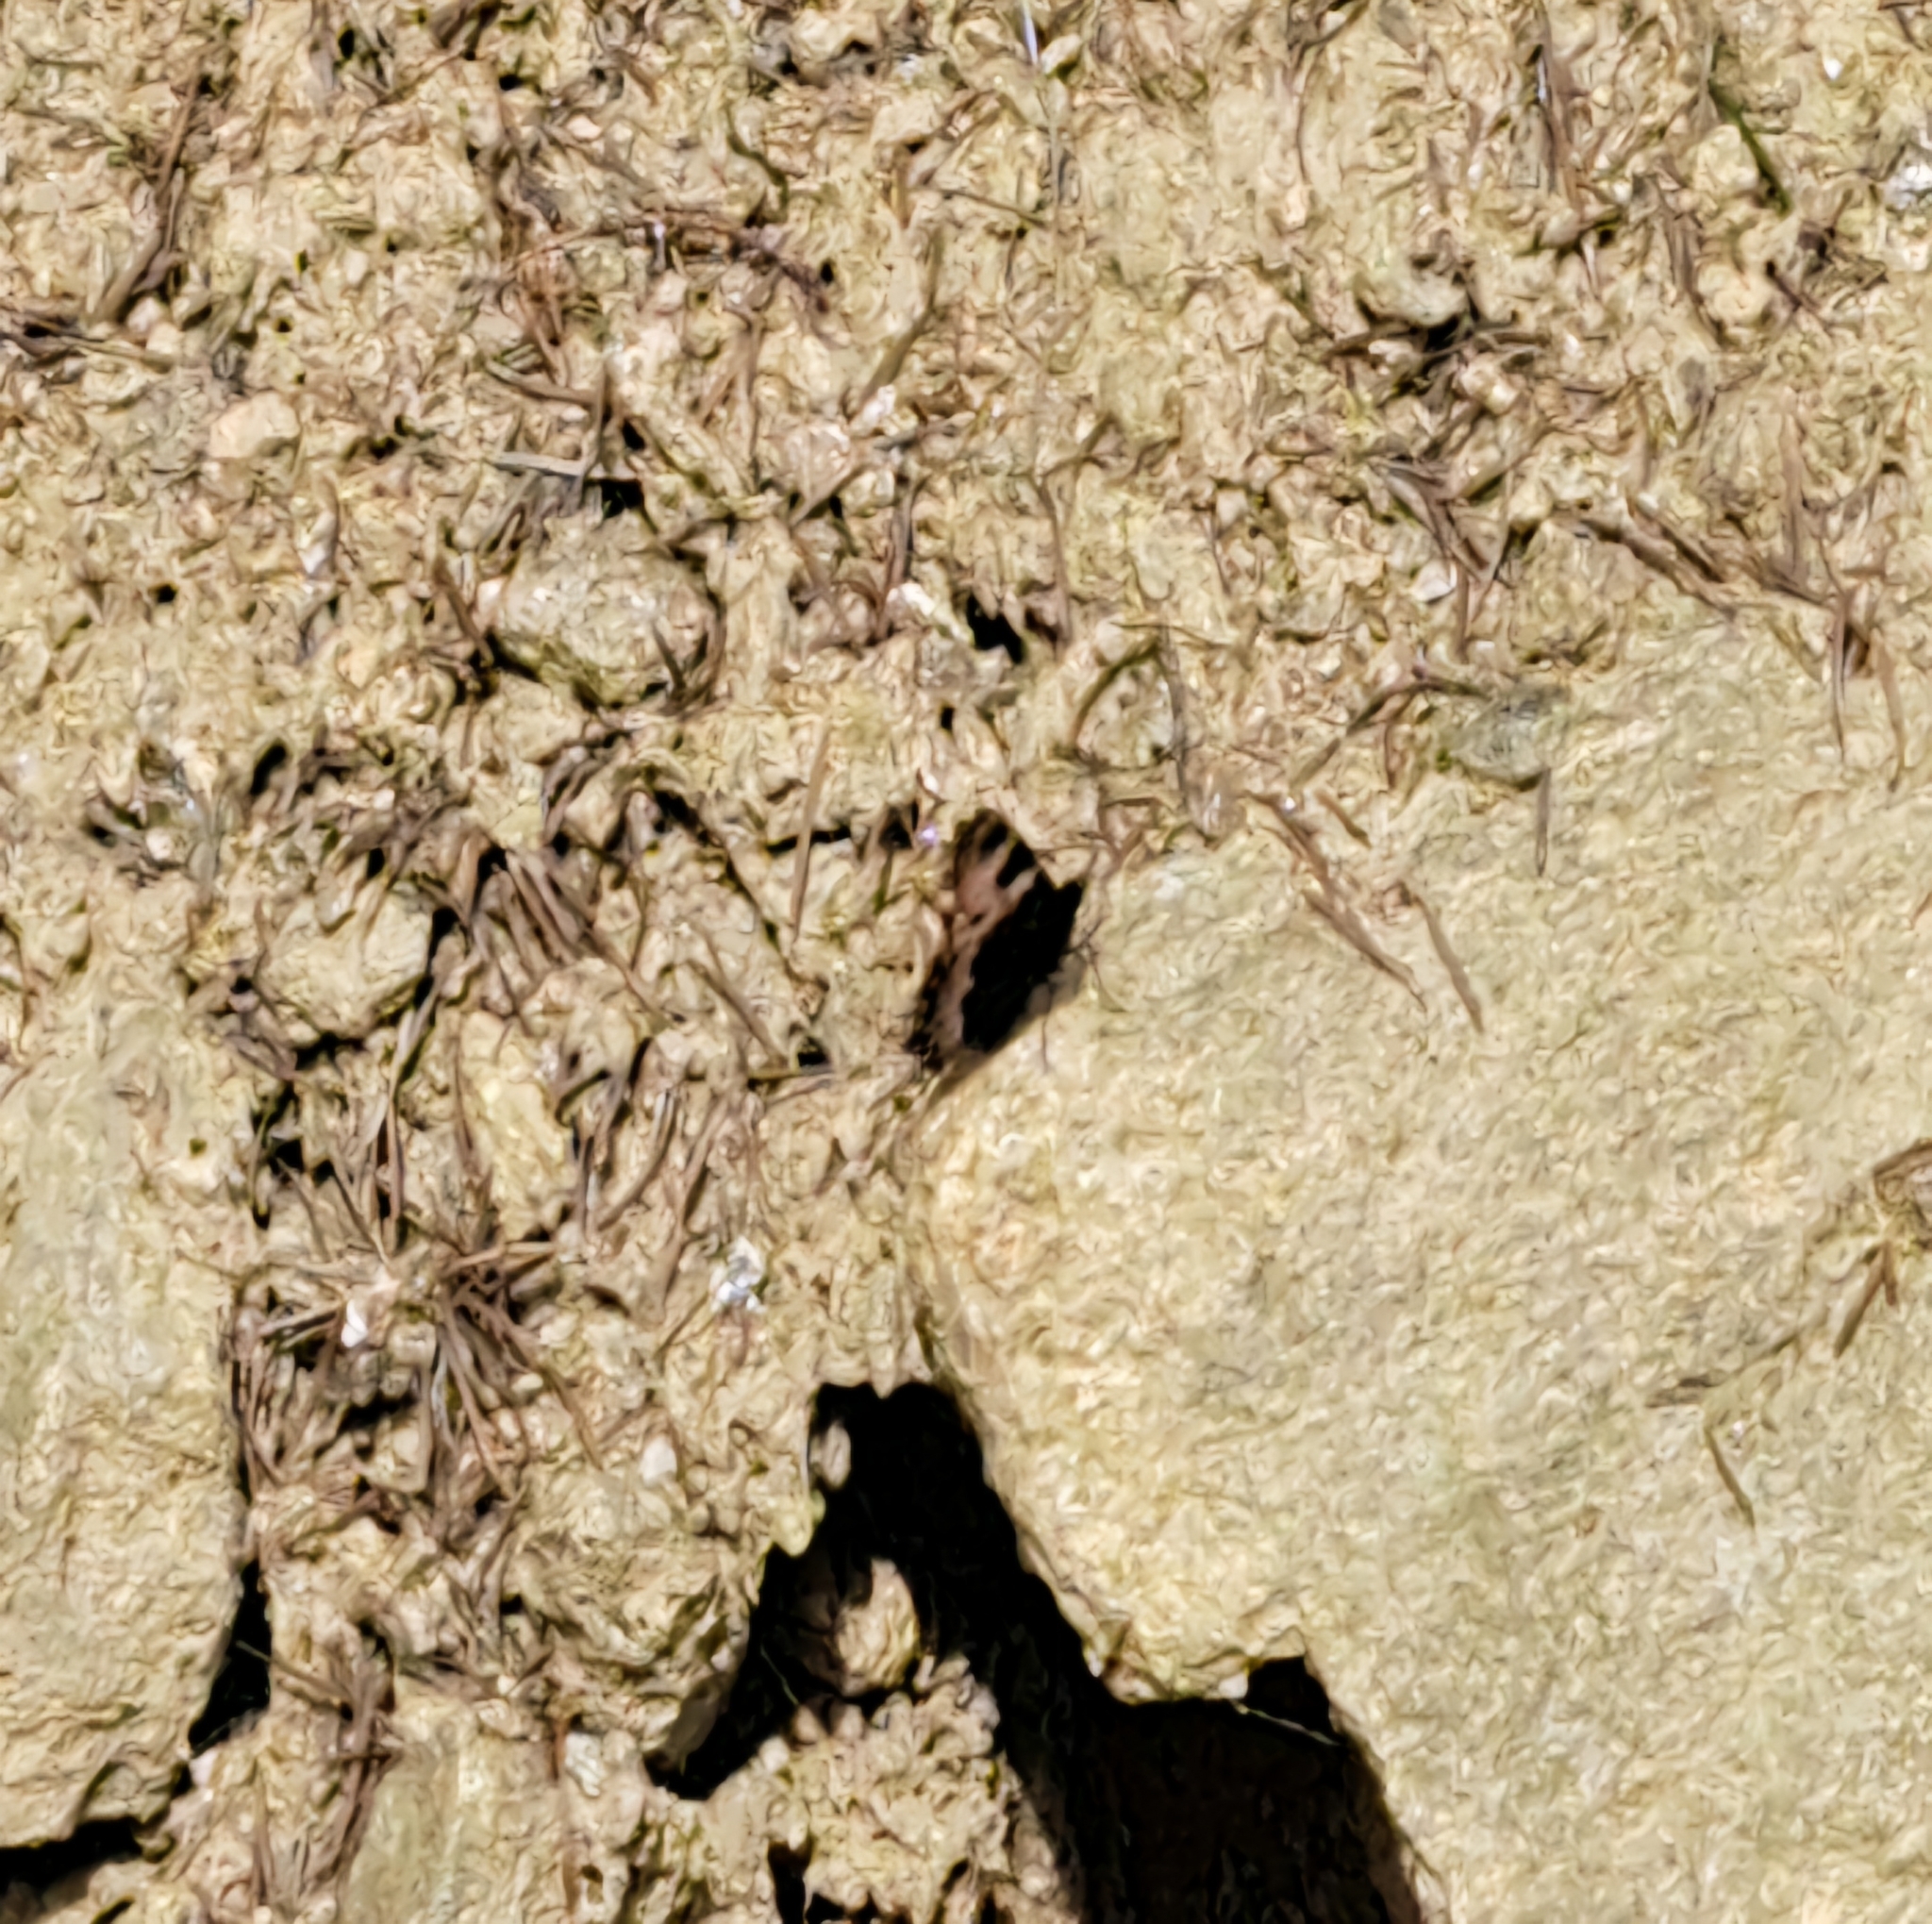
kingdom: Animalia
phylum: Arthropoda
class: Insecta
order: Lepidoptera
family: Nymphalidae
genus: Aglais
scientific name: Aglais urticae
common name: Small tortoiseshell
